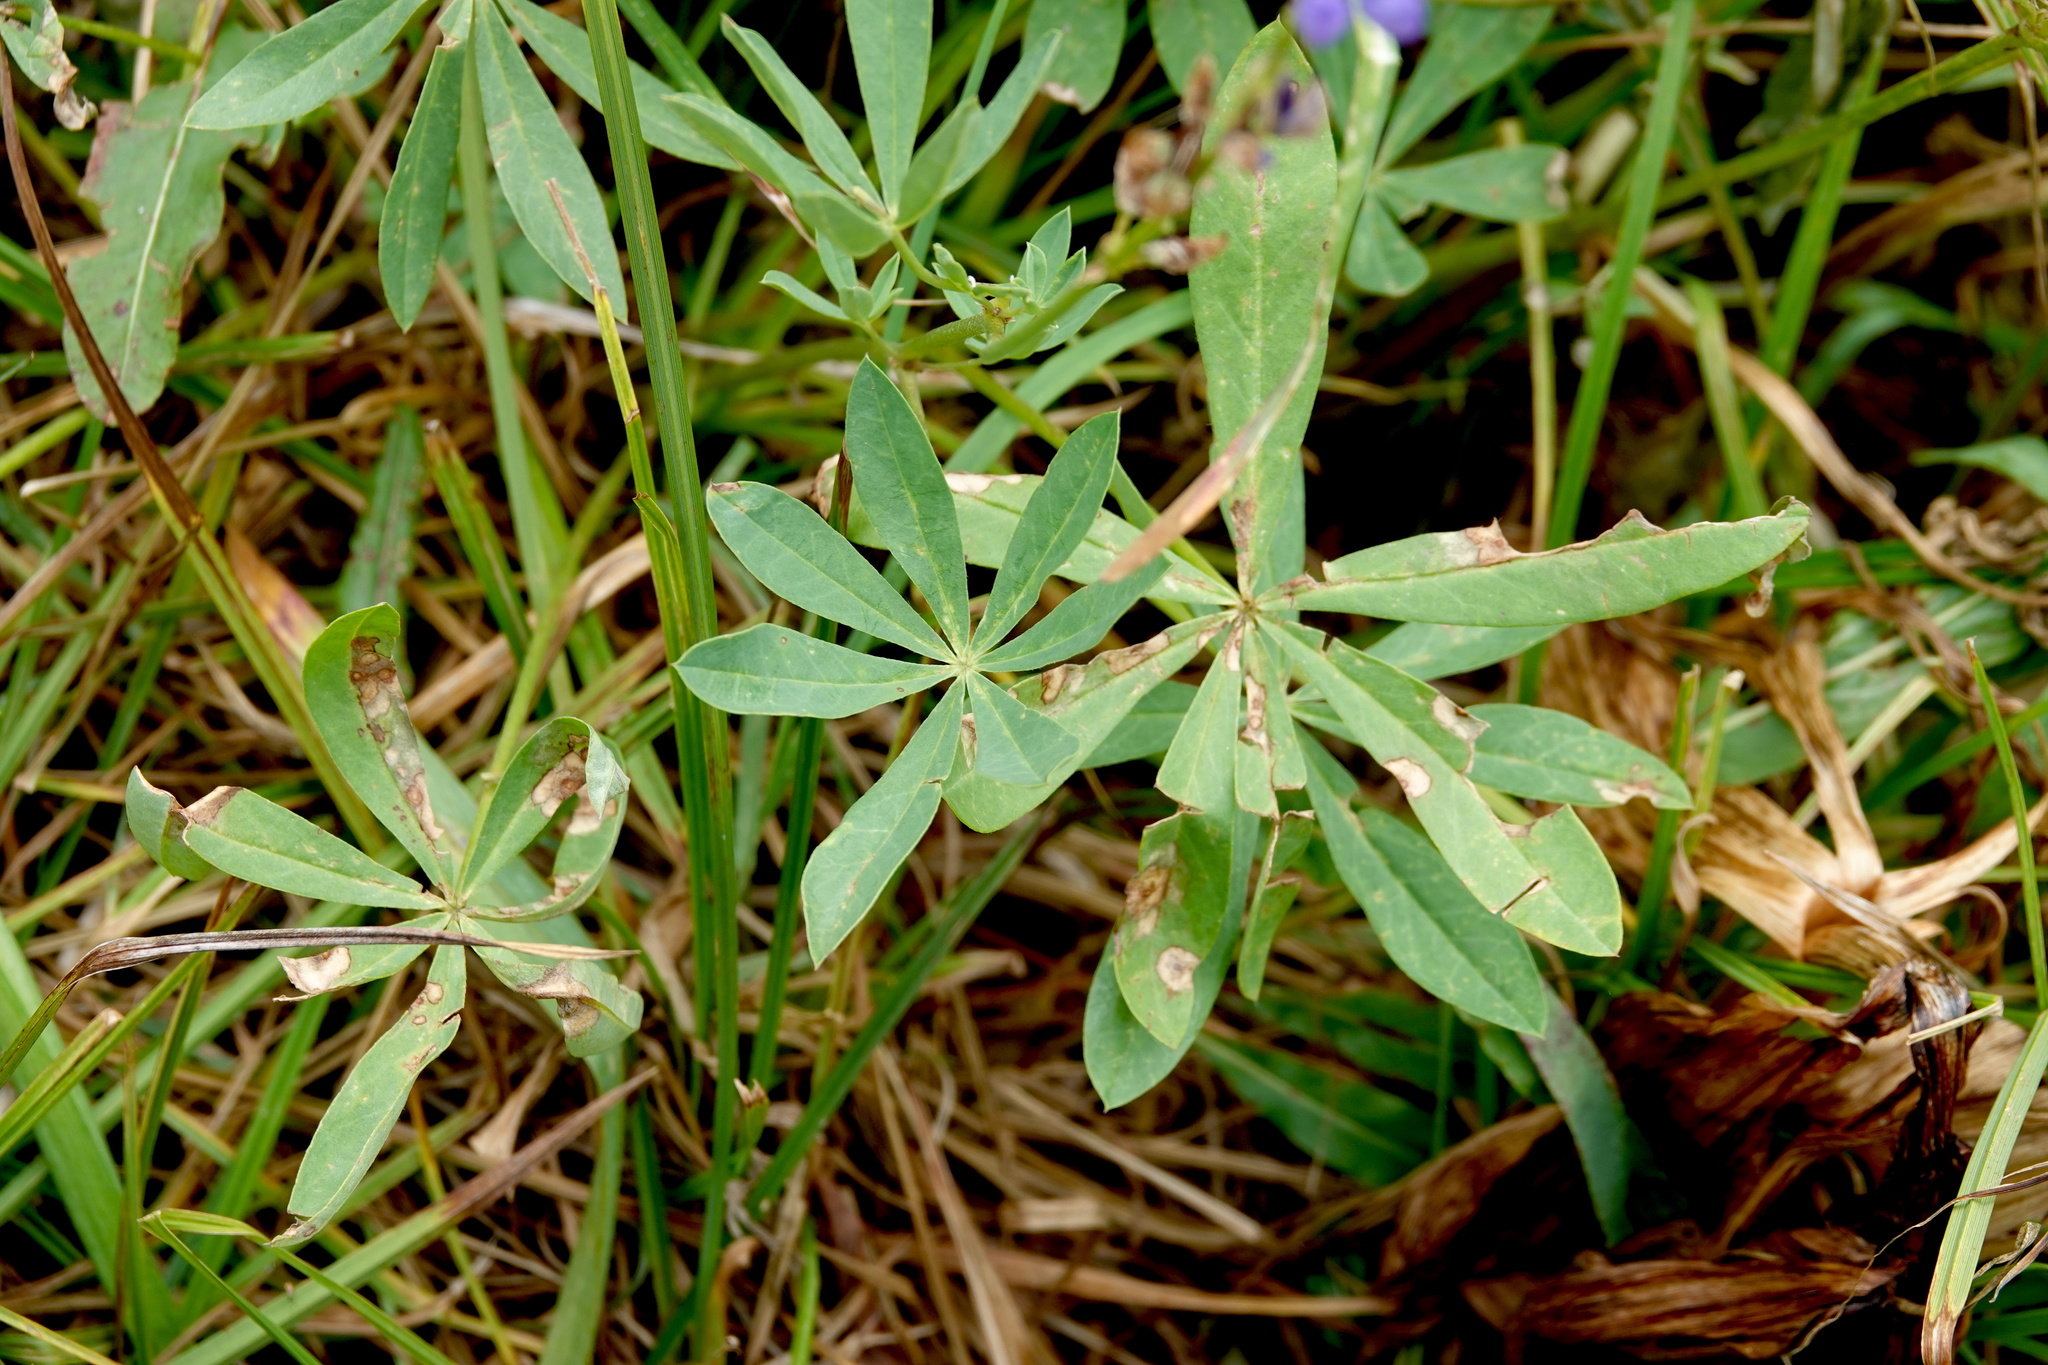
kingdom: Plantae
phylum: Tracheophyta
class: Magnoliopsida
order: Fabales
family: Fabaceae
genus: Lupinus
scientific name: Lupinus latifolius
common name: Broad-leaved lupine
